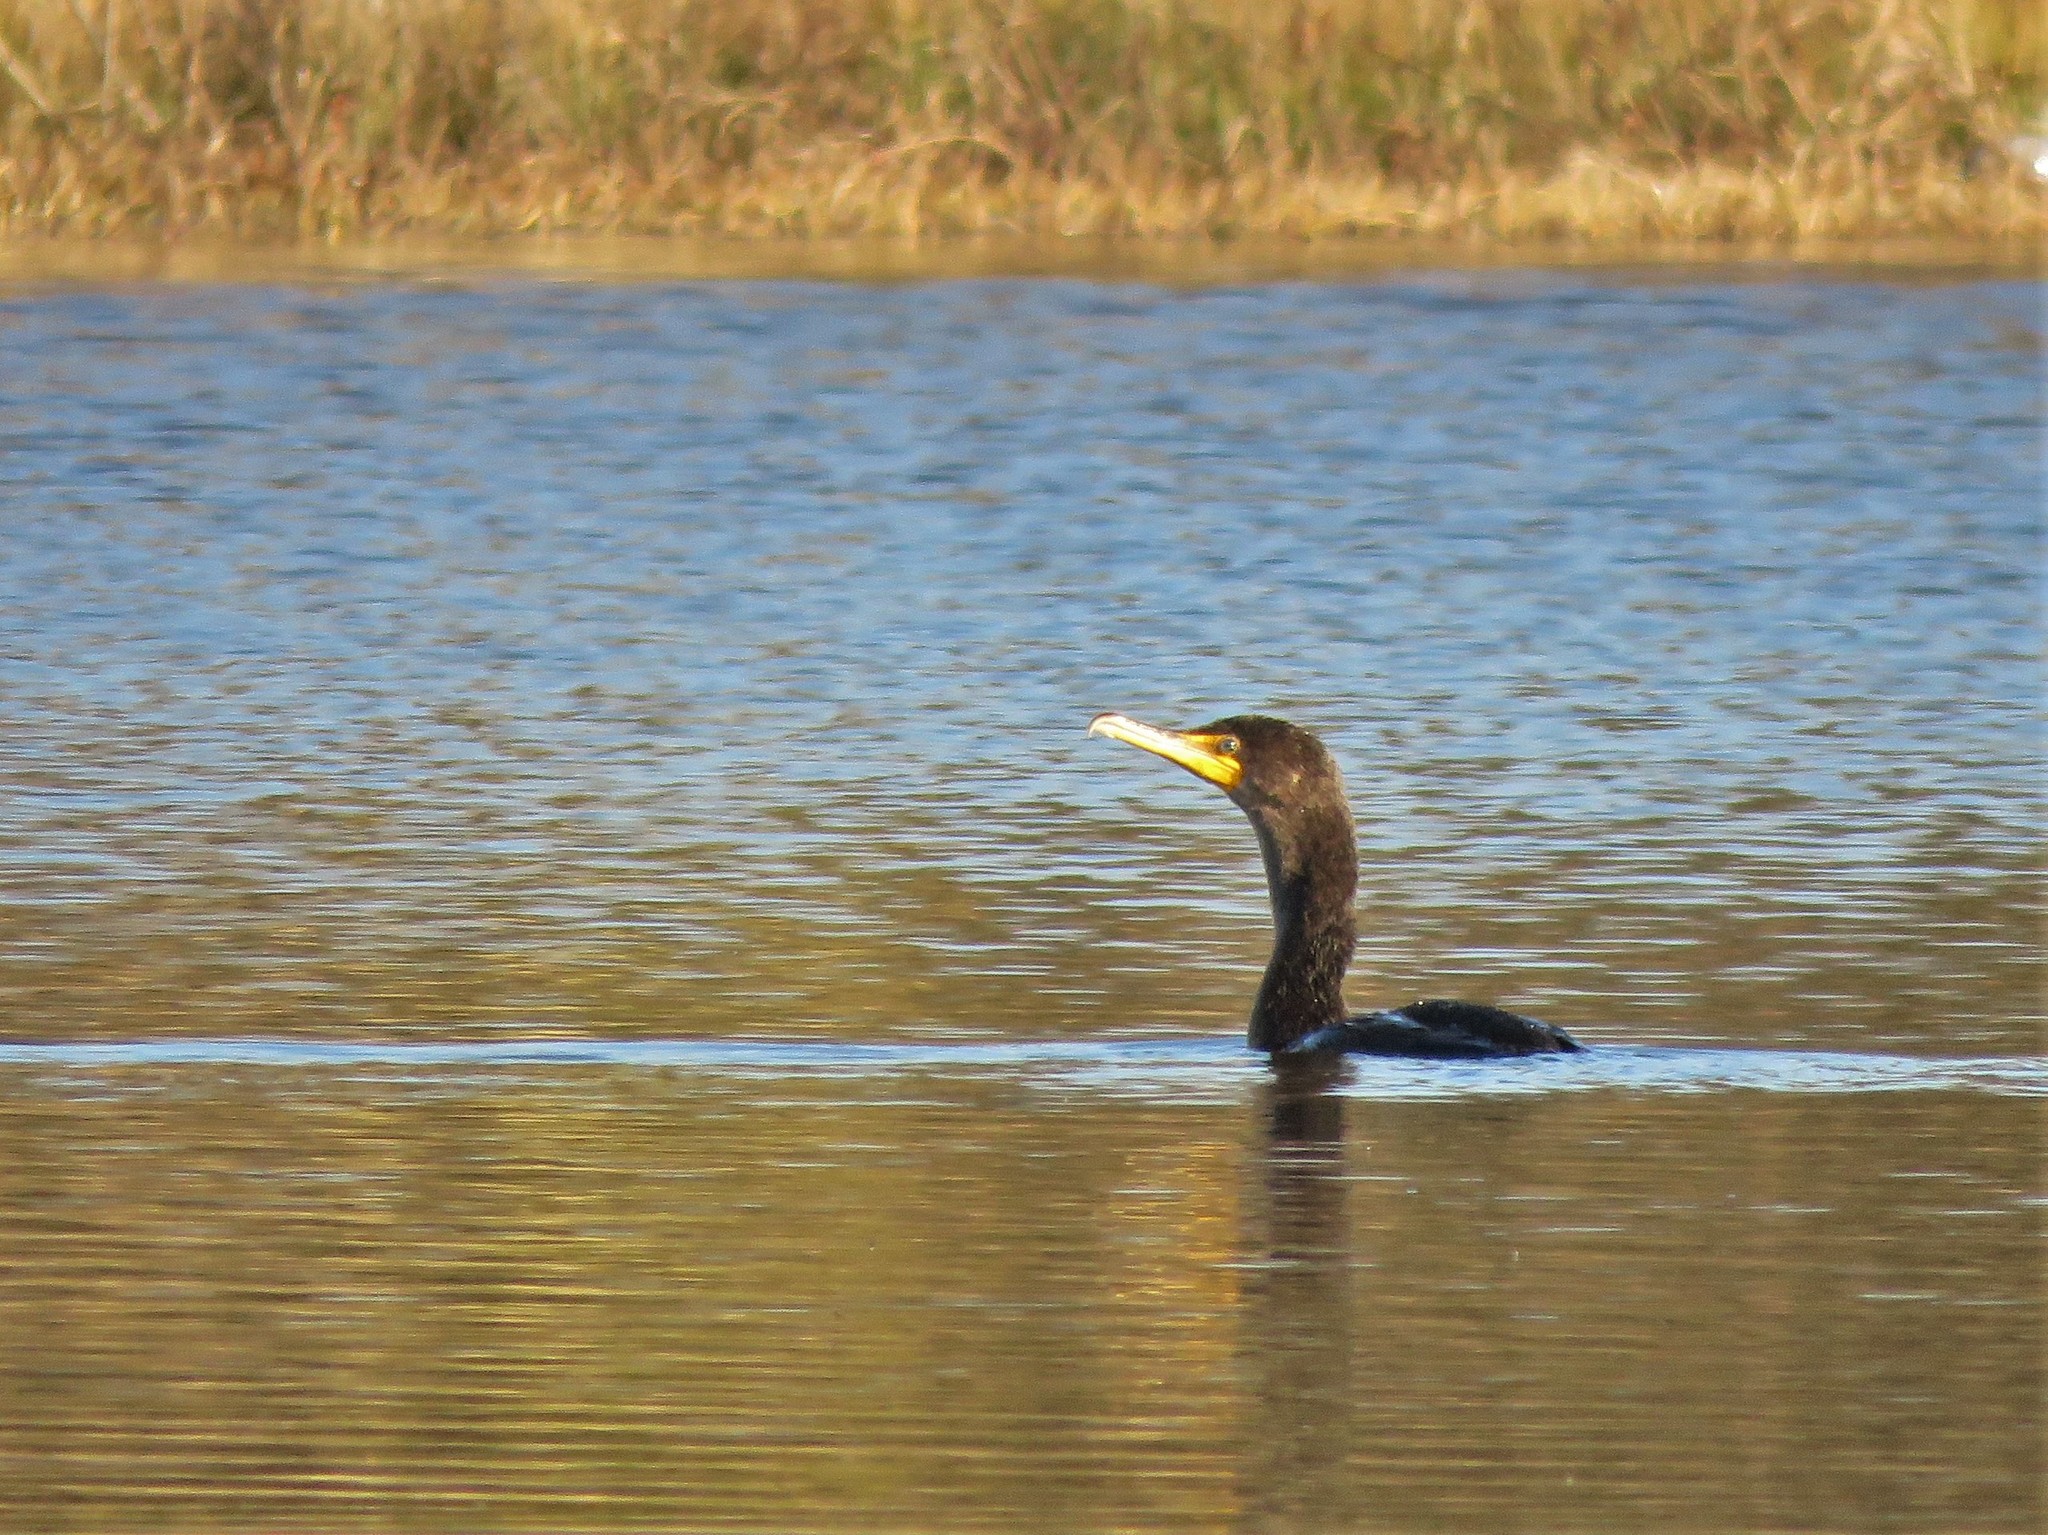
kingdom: Animalia
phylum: Chordata
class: Aves
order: Suliformes
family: Phalacrocoracidae
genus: Phalacrocorax
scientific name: Phalacrocorax auritus
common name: Double-crested cormorant
